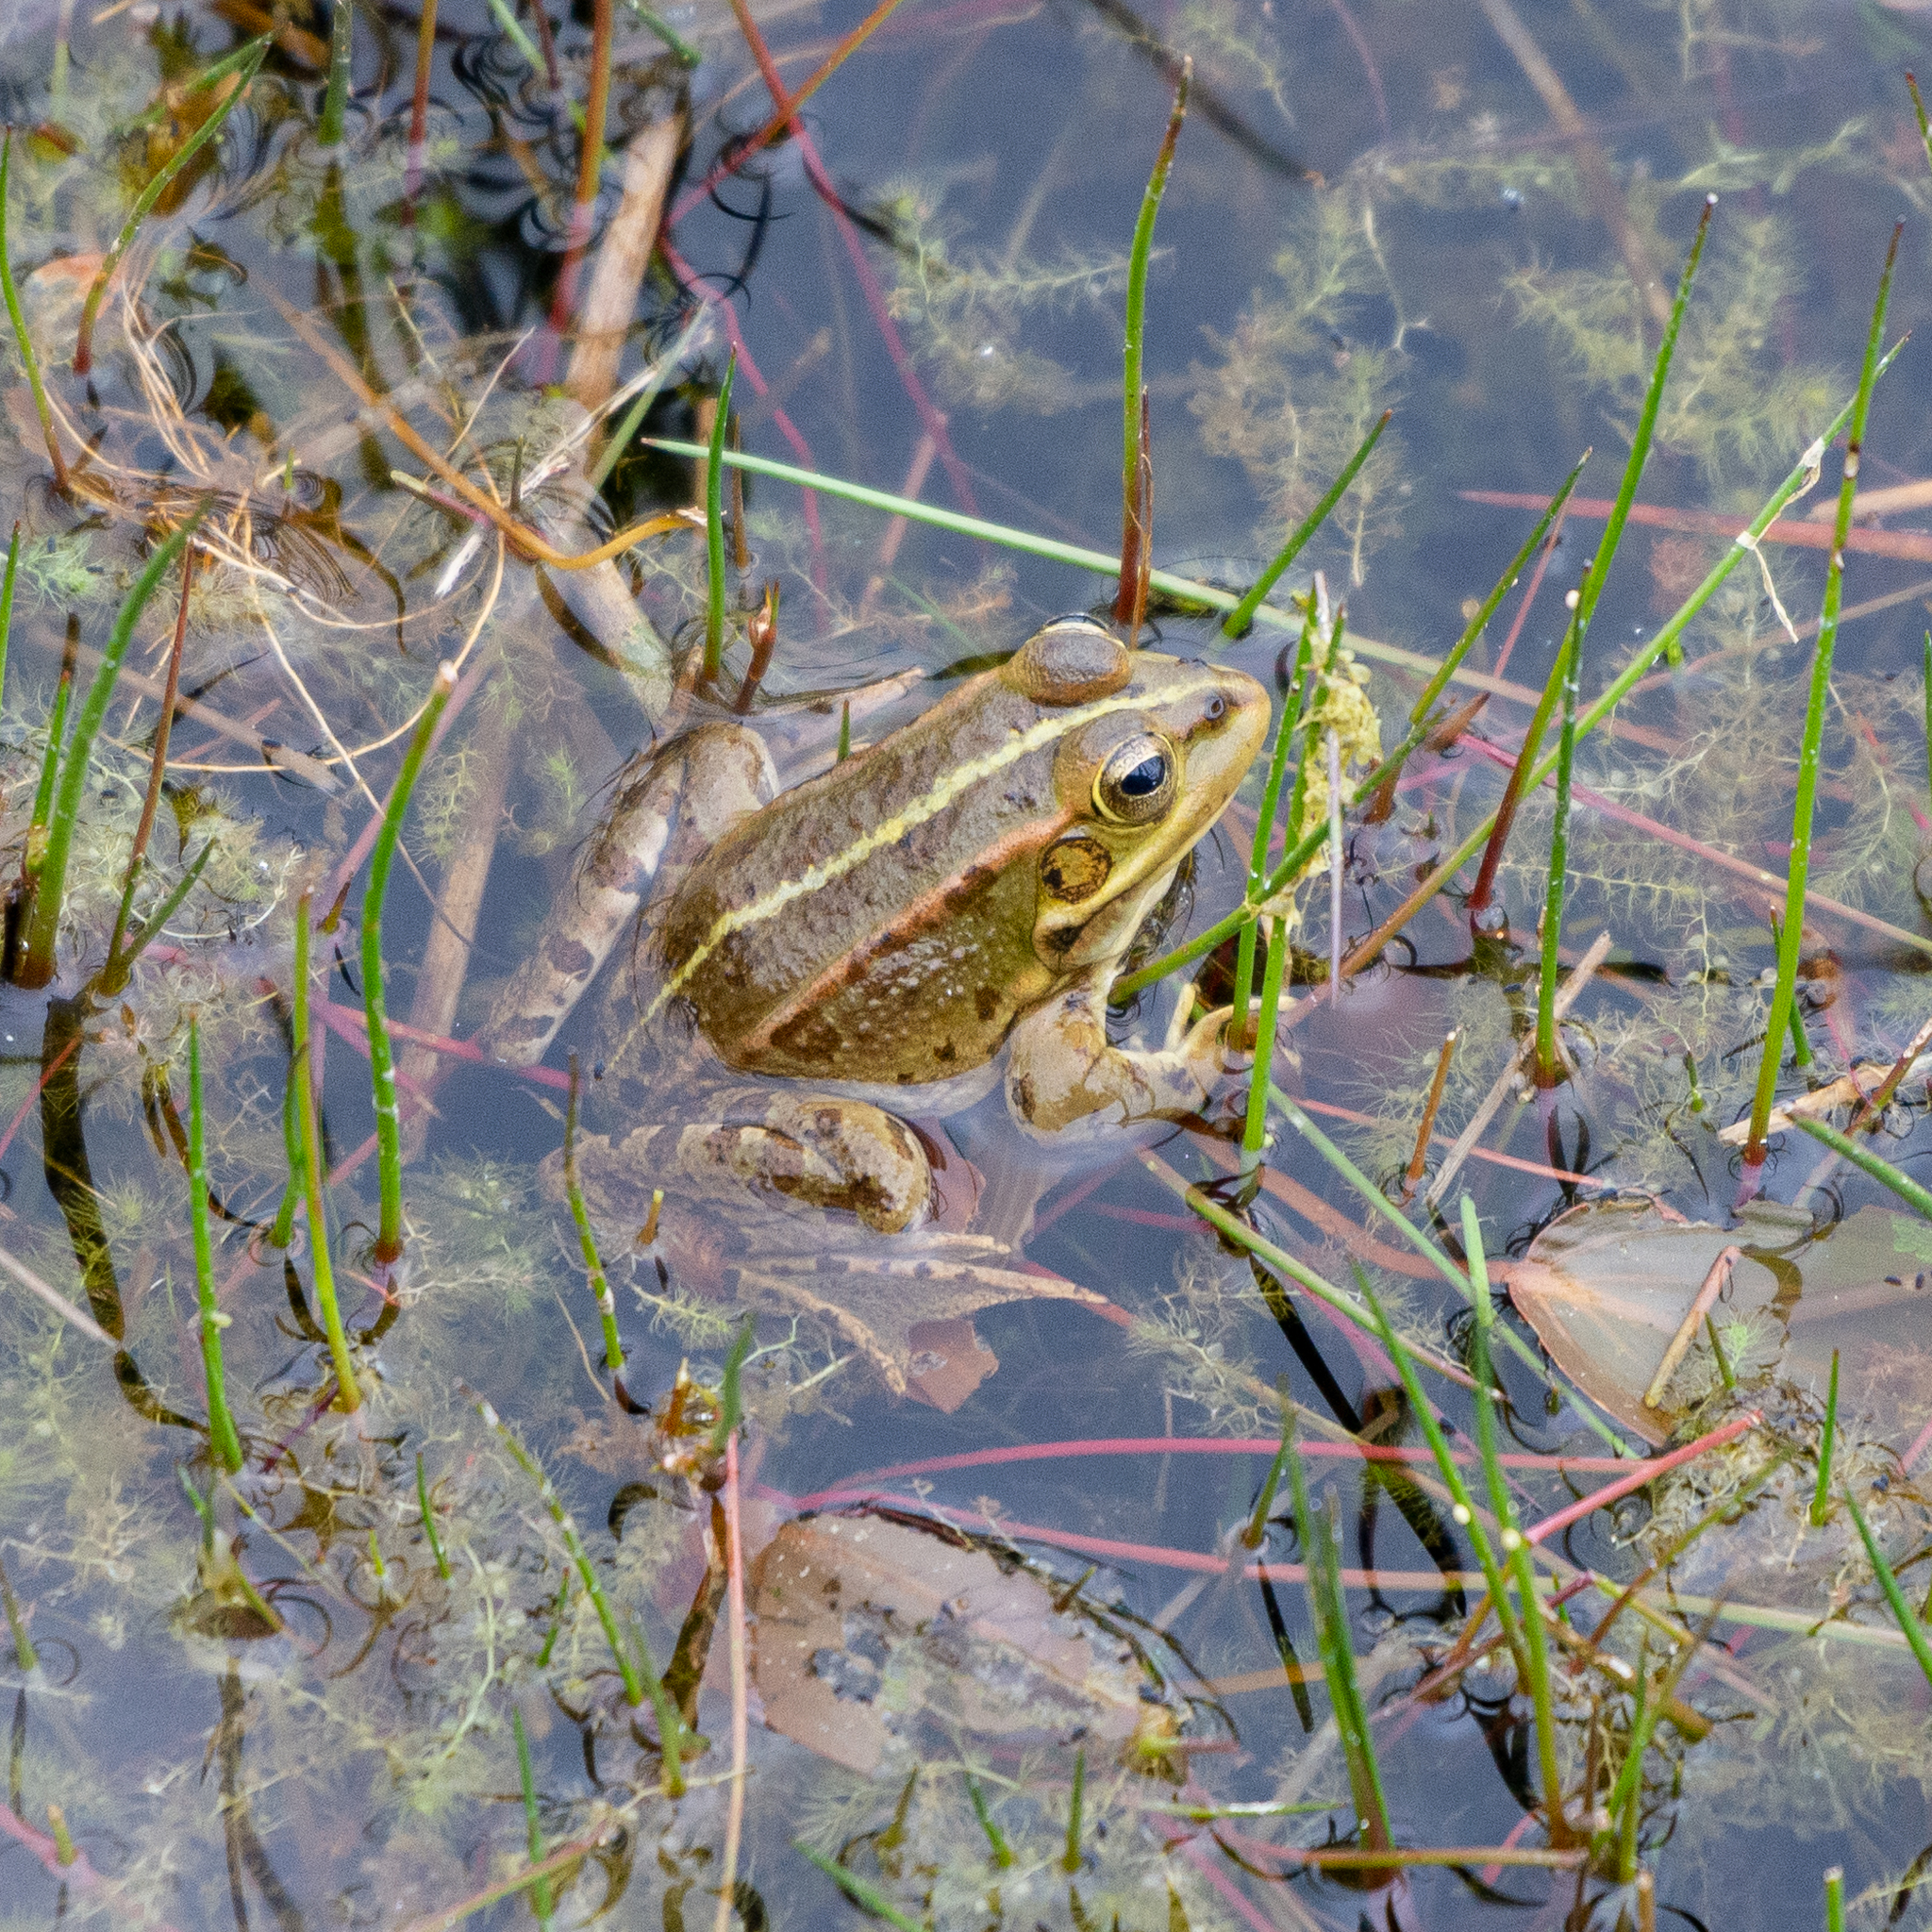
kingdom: Animalia
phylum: Chordata
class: Amphibia
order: Anura
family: Ranidae
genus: Pelophylax
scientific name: Pelophylax perezi
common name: Perez's frog
